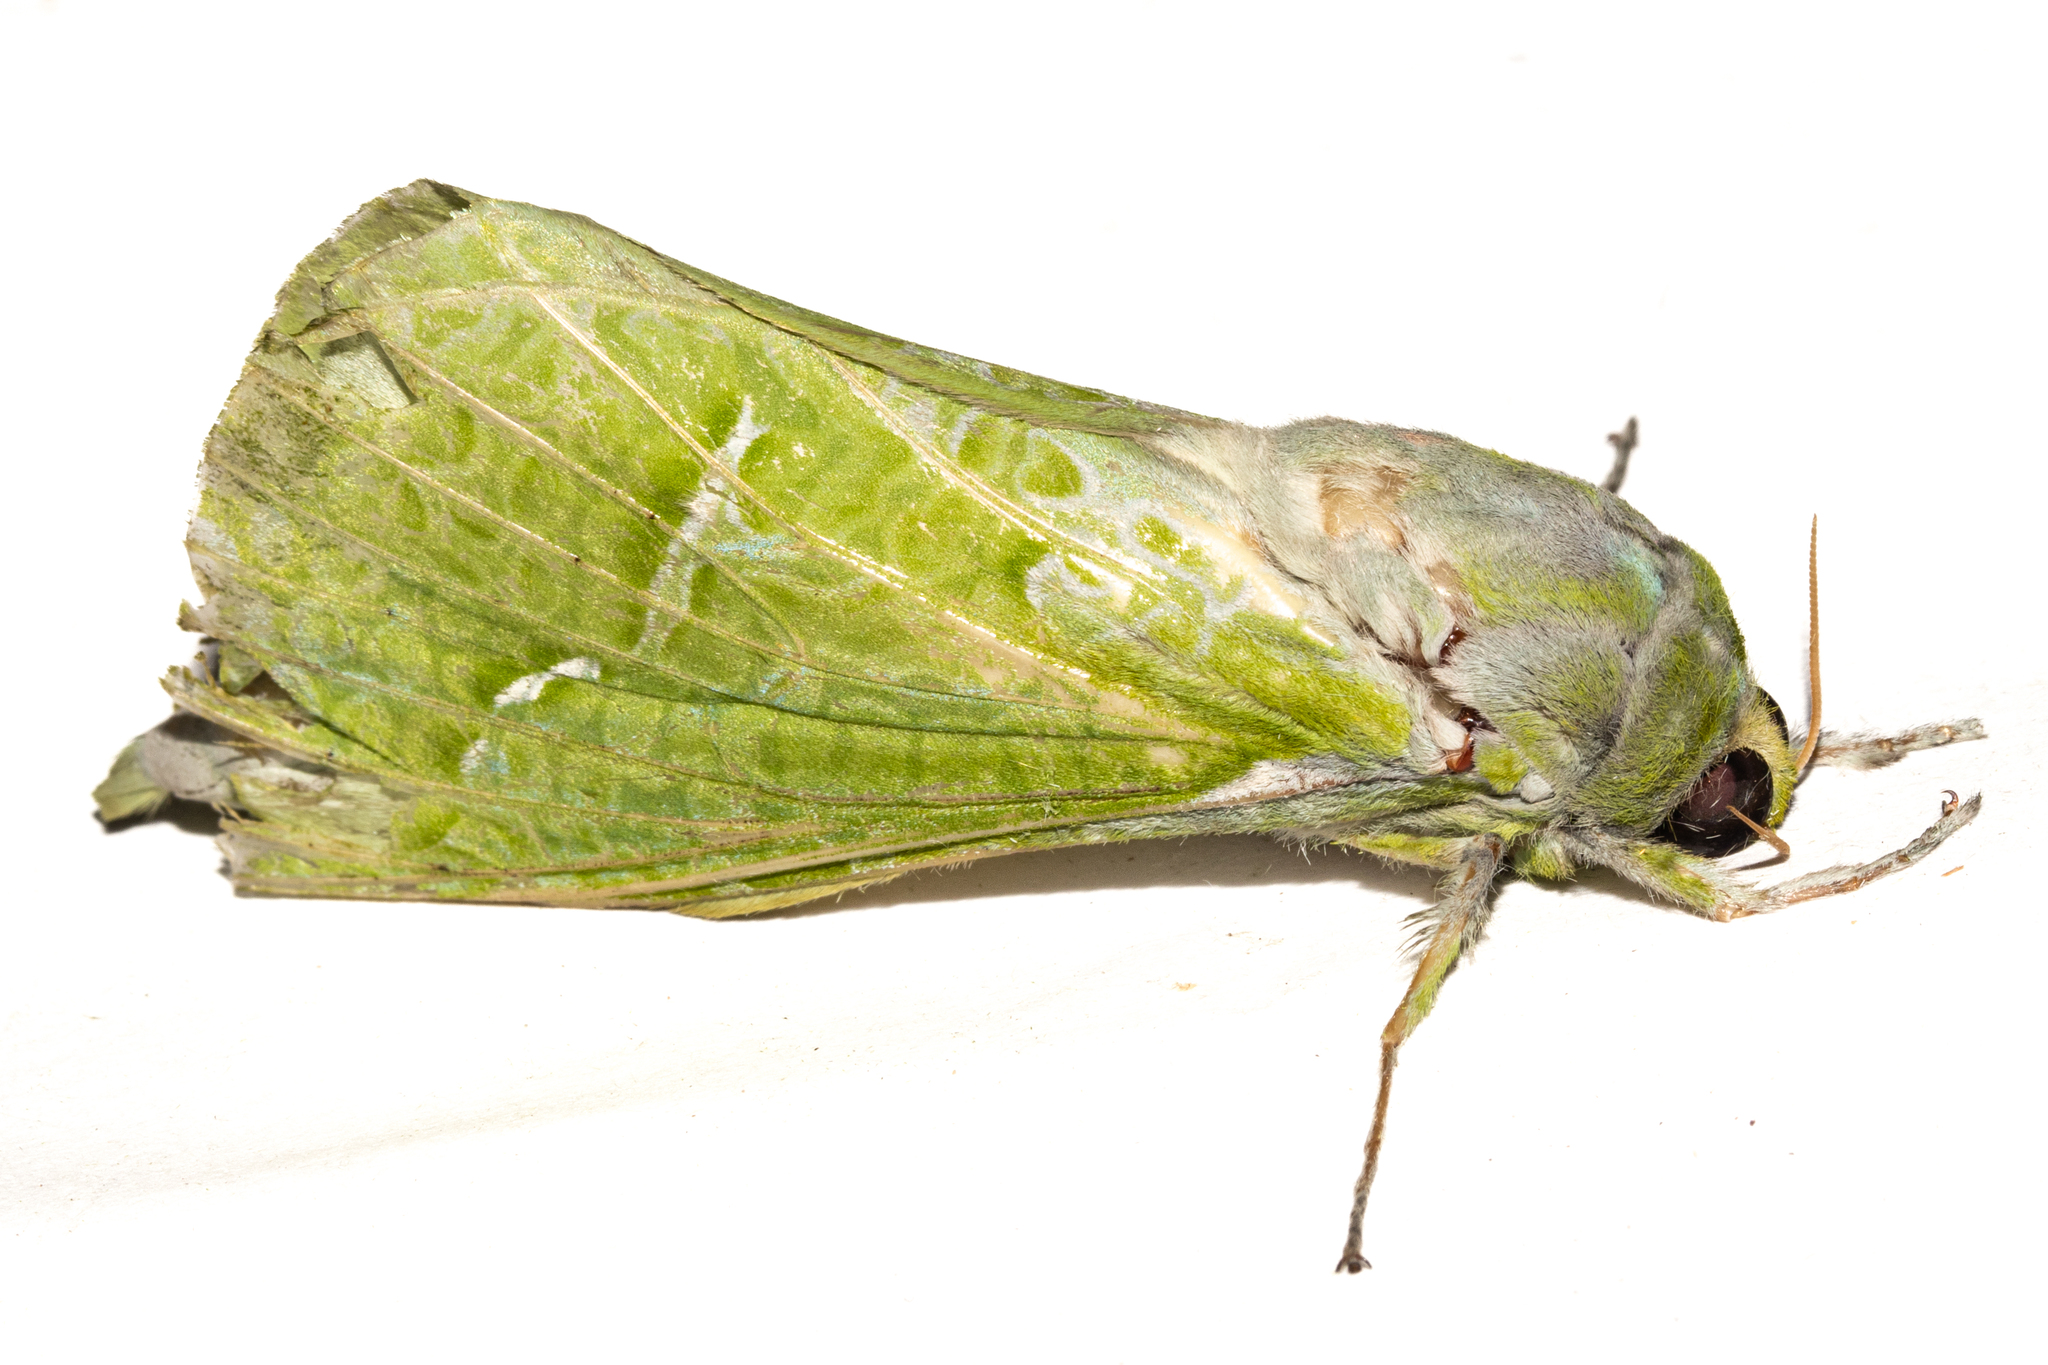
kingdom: Animalia
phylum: Arthropoda
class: Insecta
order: Lepidoptera
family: Hepialidae
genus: Aenetus
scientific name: Aenetus virescens
